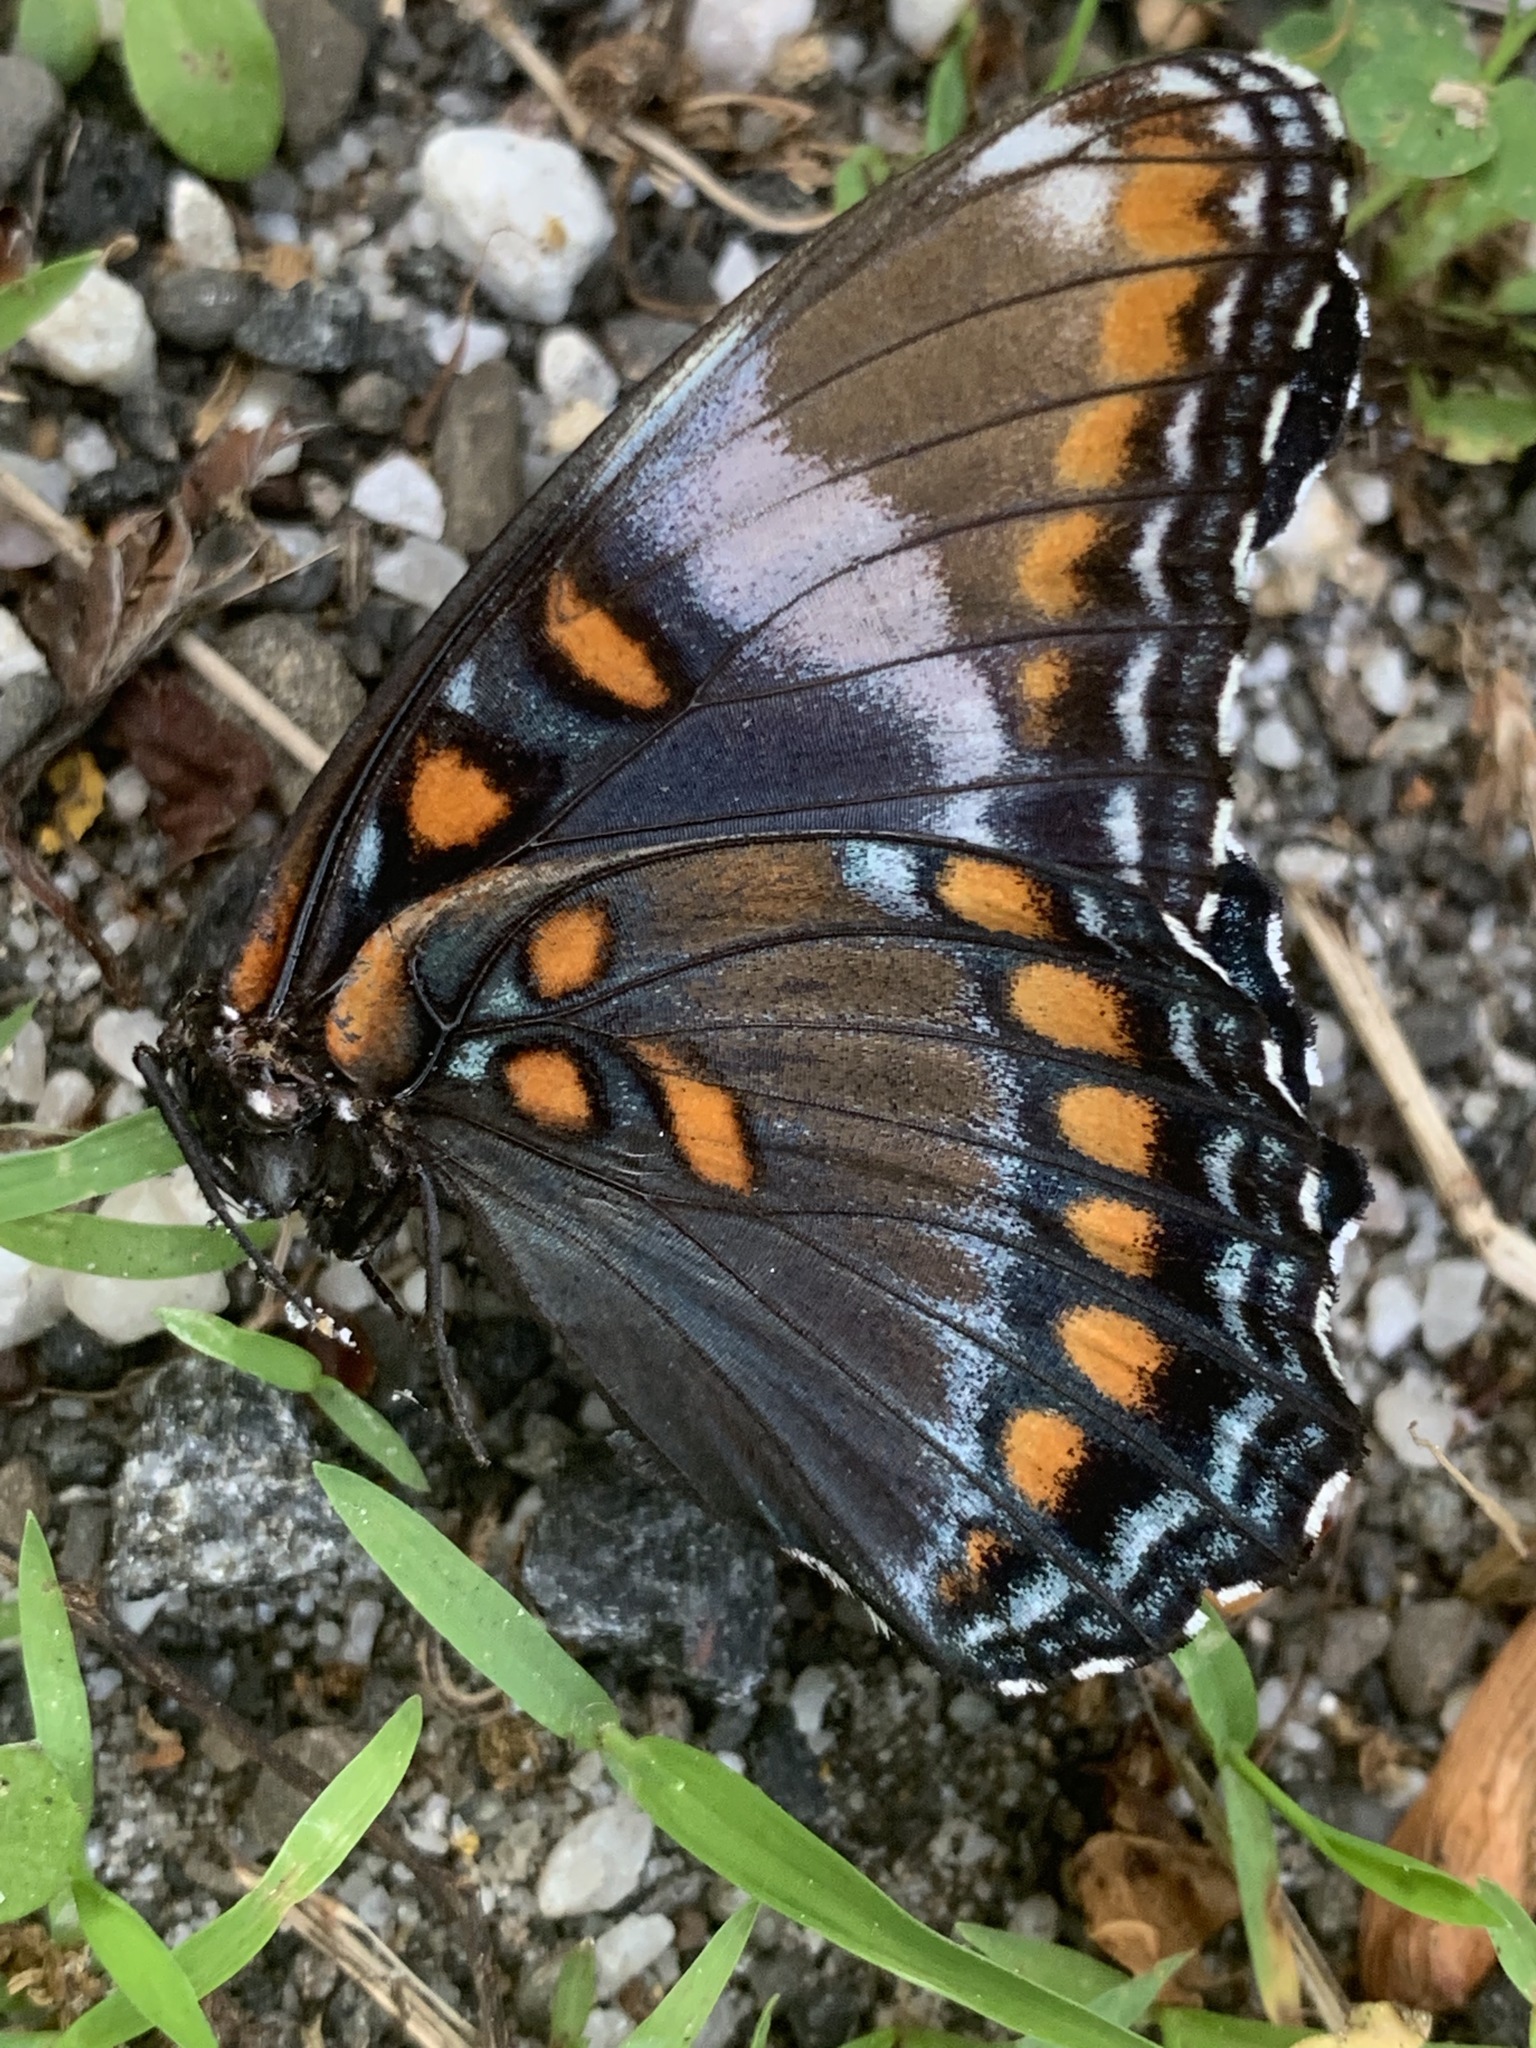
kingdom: Animalia
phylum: Arthropoda
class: Insecta
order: Lepidoptera
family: Nymphalidae
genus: Limenitis
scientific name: Limenitis arthemis
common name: Red-spotted admiral
